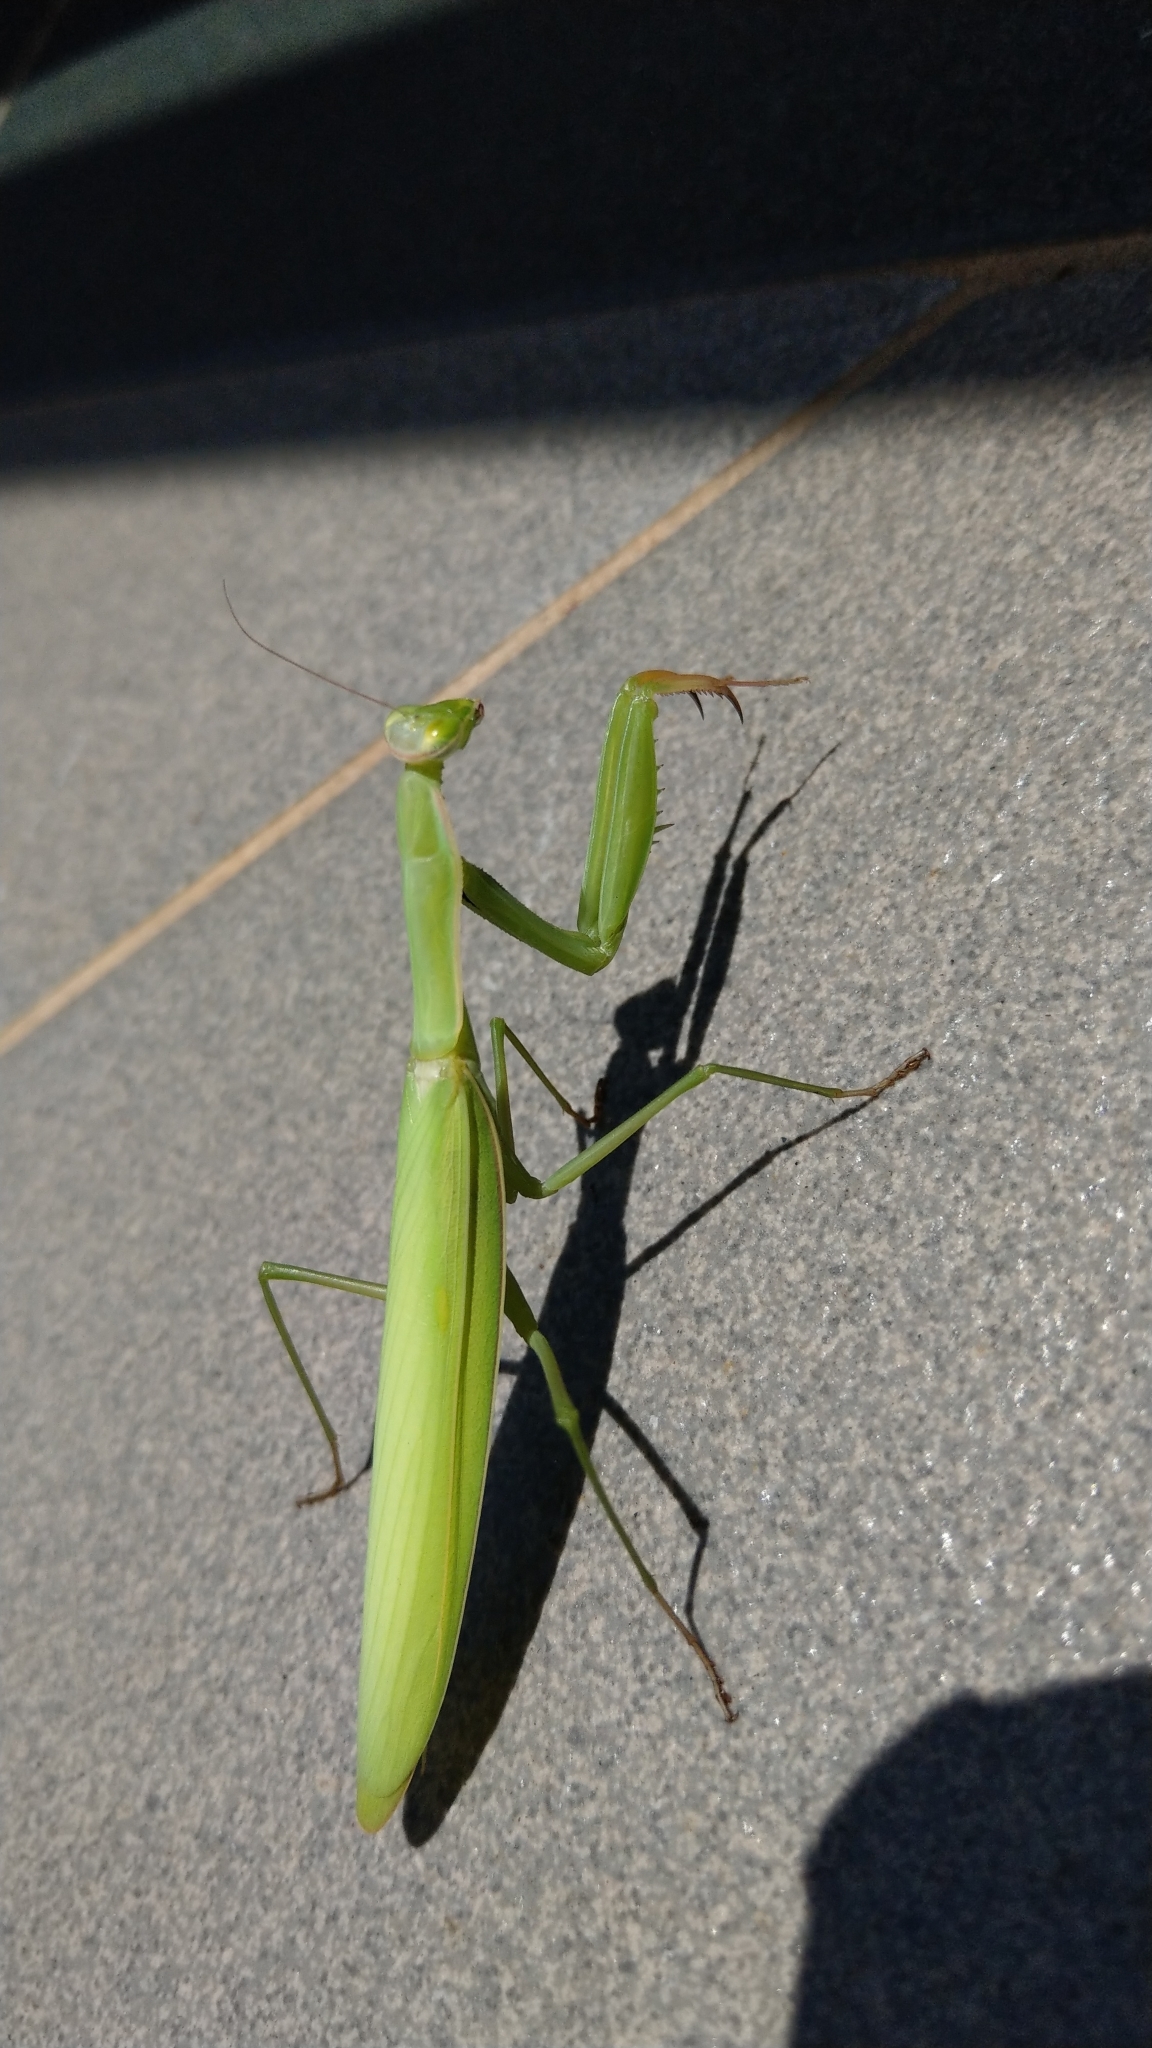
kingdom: Animalia
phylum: Arthropoda
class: Insecta
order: Mantodea
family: Mantidae
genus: Mantis
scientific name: Mantis religiosa
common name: Praying mantis
